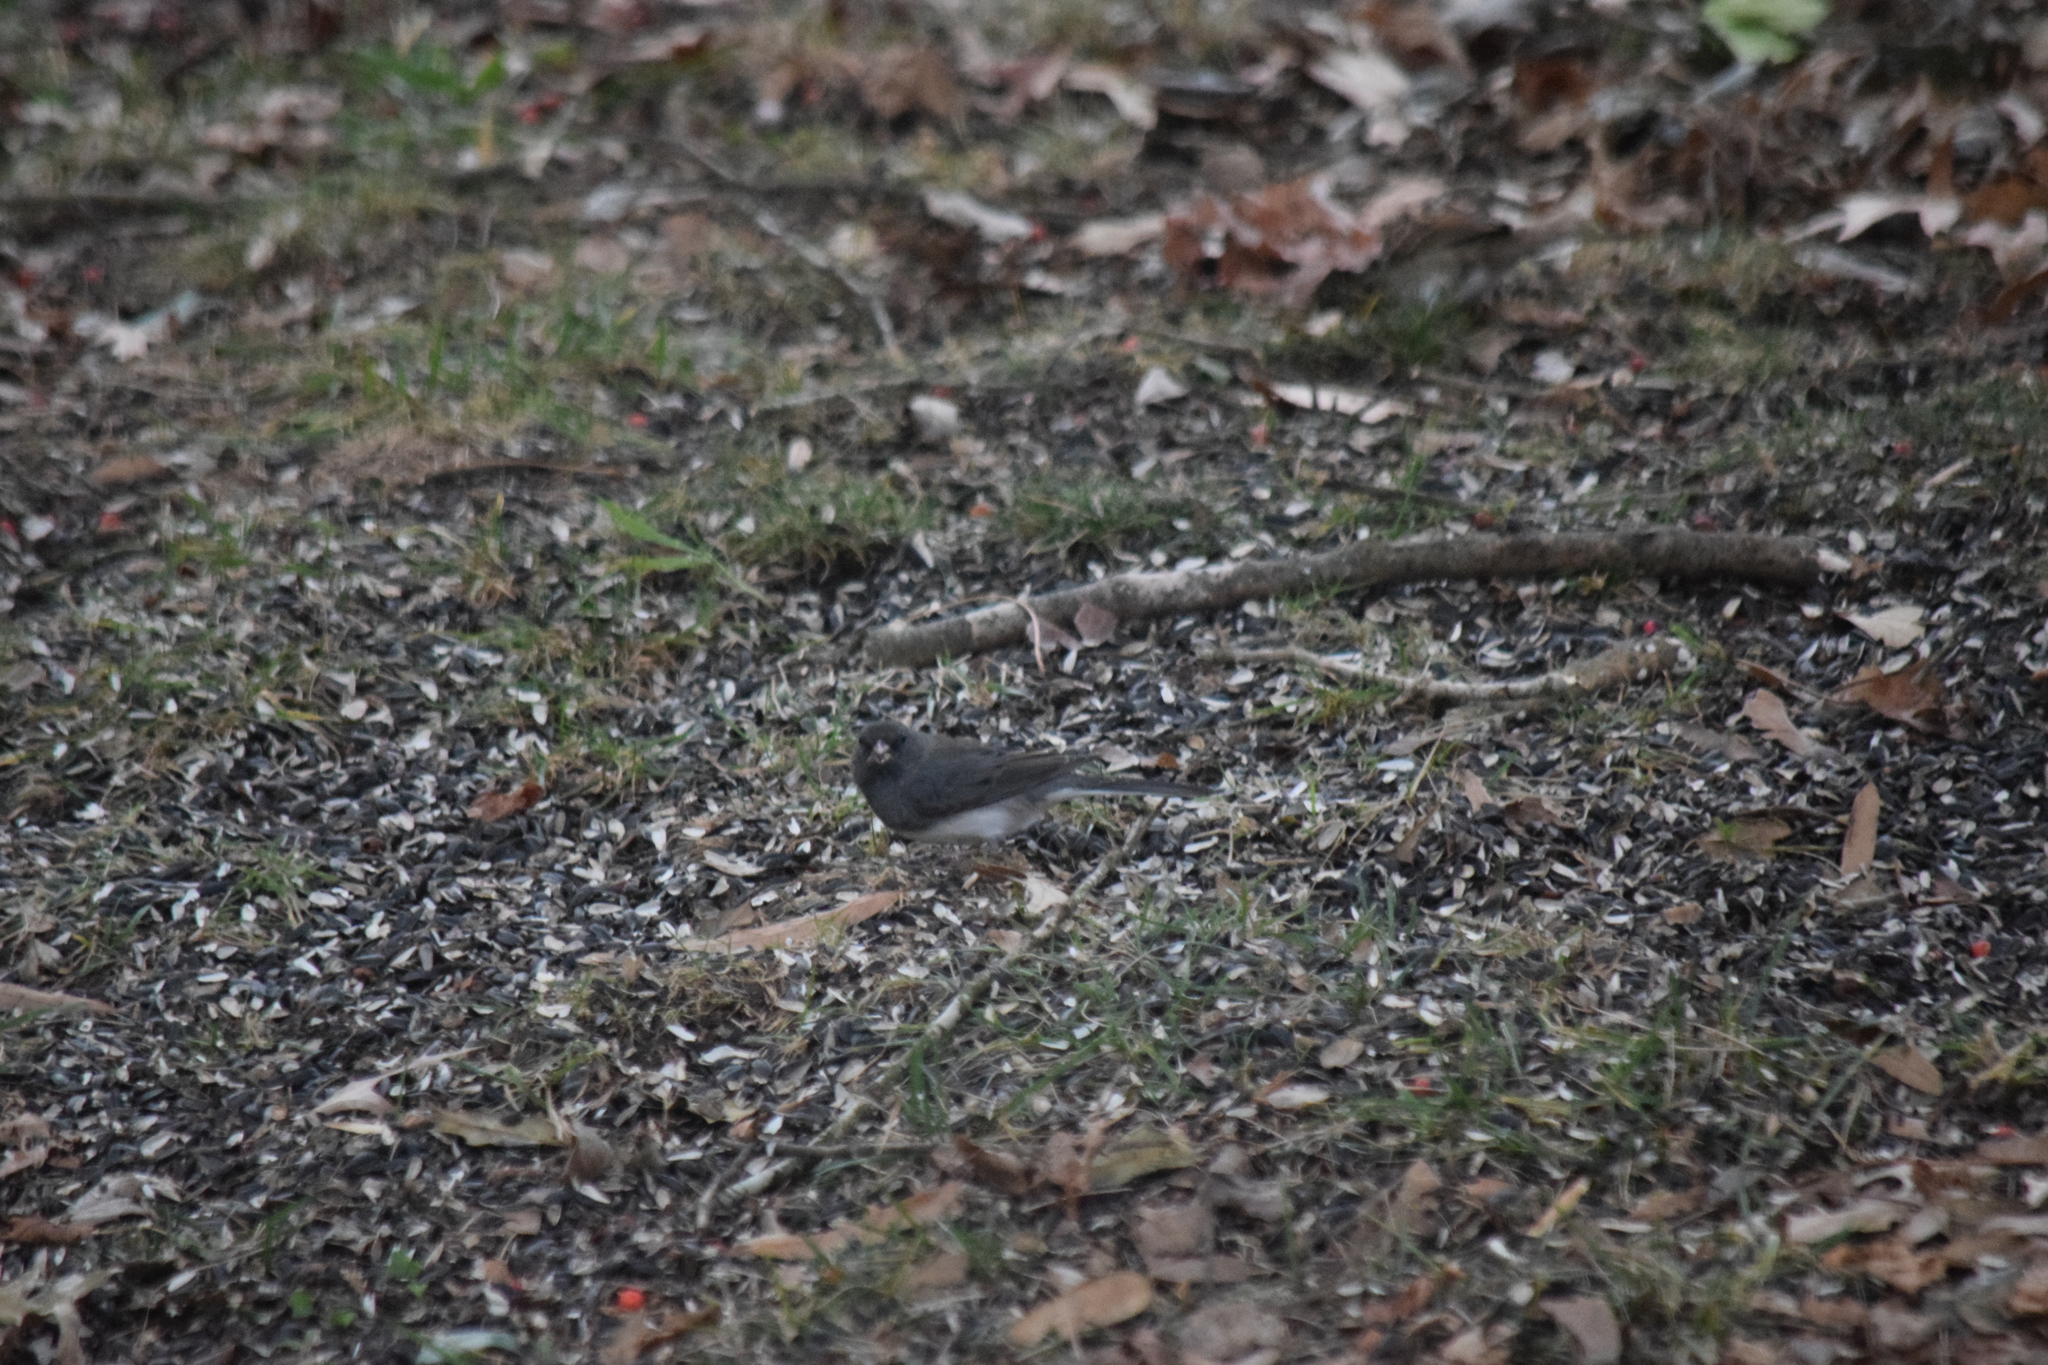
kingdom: Animalia
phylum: Chordata
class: Aves
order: Passeriformes
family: Passerellidae
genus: Junco
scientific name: Junco hyemalis
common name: Dark-eyed junco
